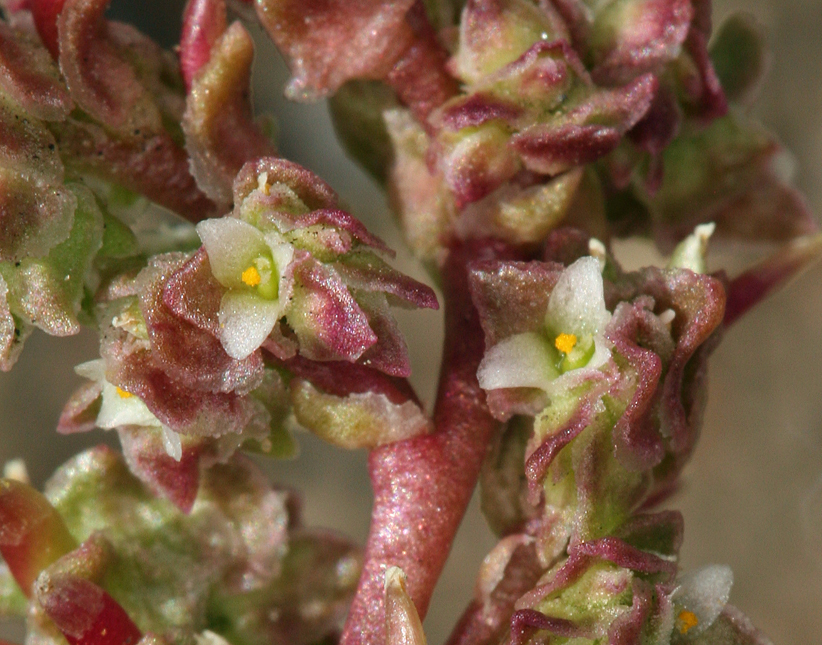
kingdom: Plantae
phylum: Tracheophyta
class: Magnoliopsida
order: Caryophyllales
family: Montiaceae
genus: Calyptridium
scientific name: Calyptridium monandrum
